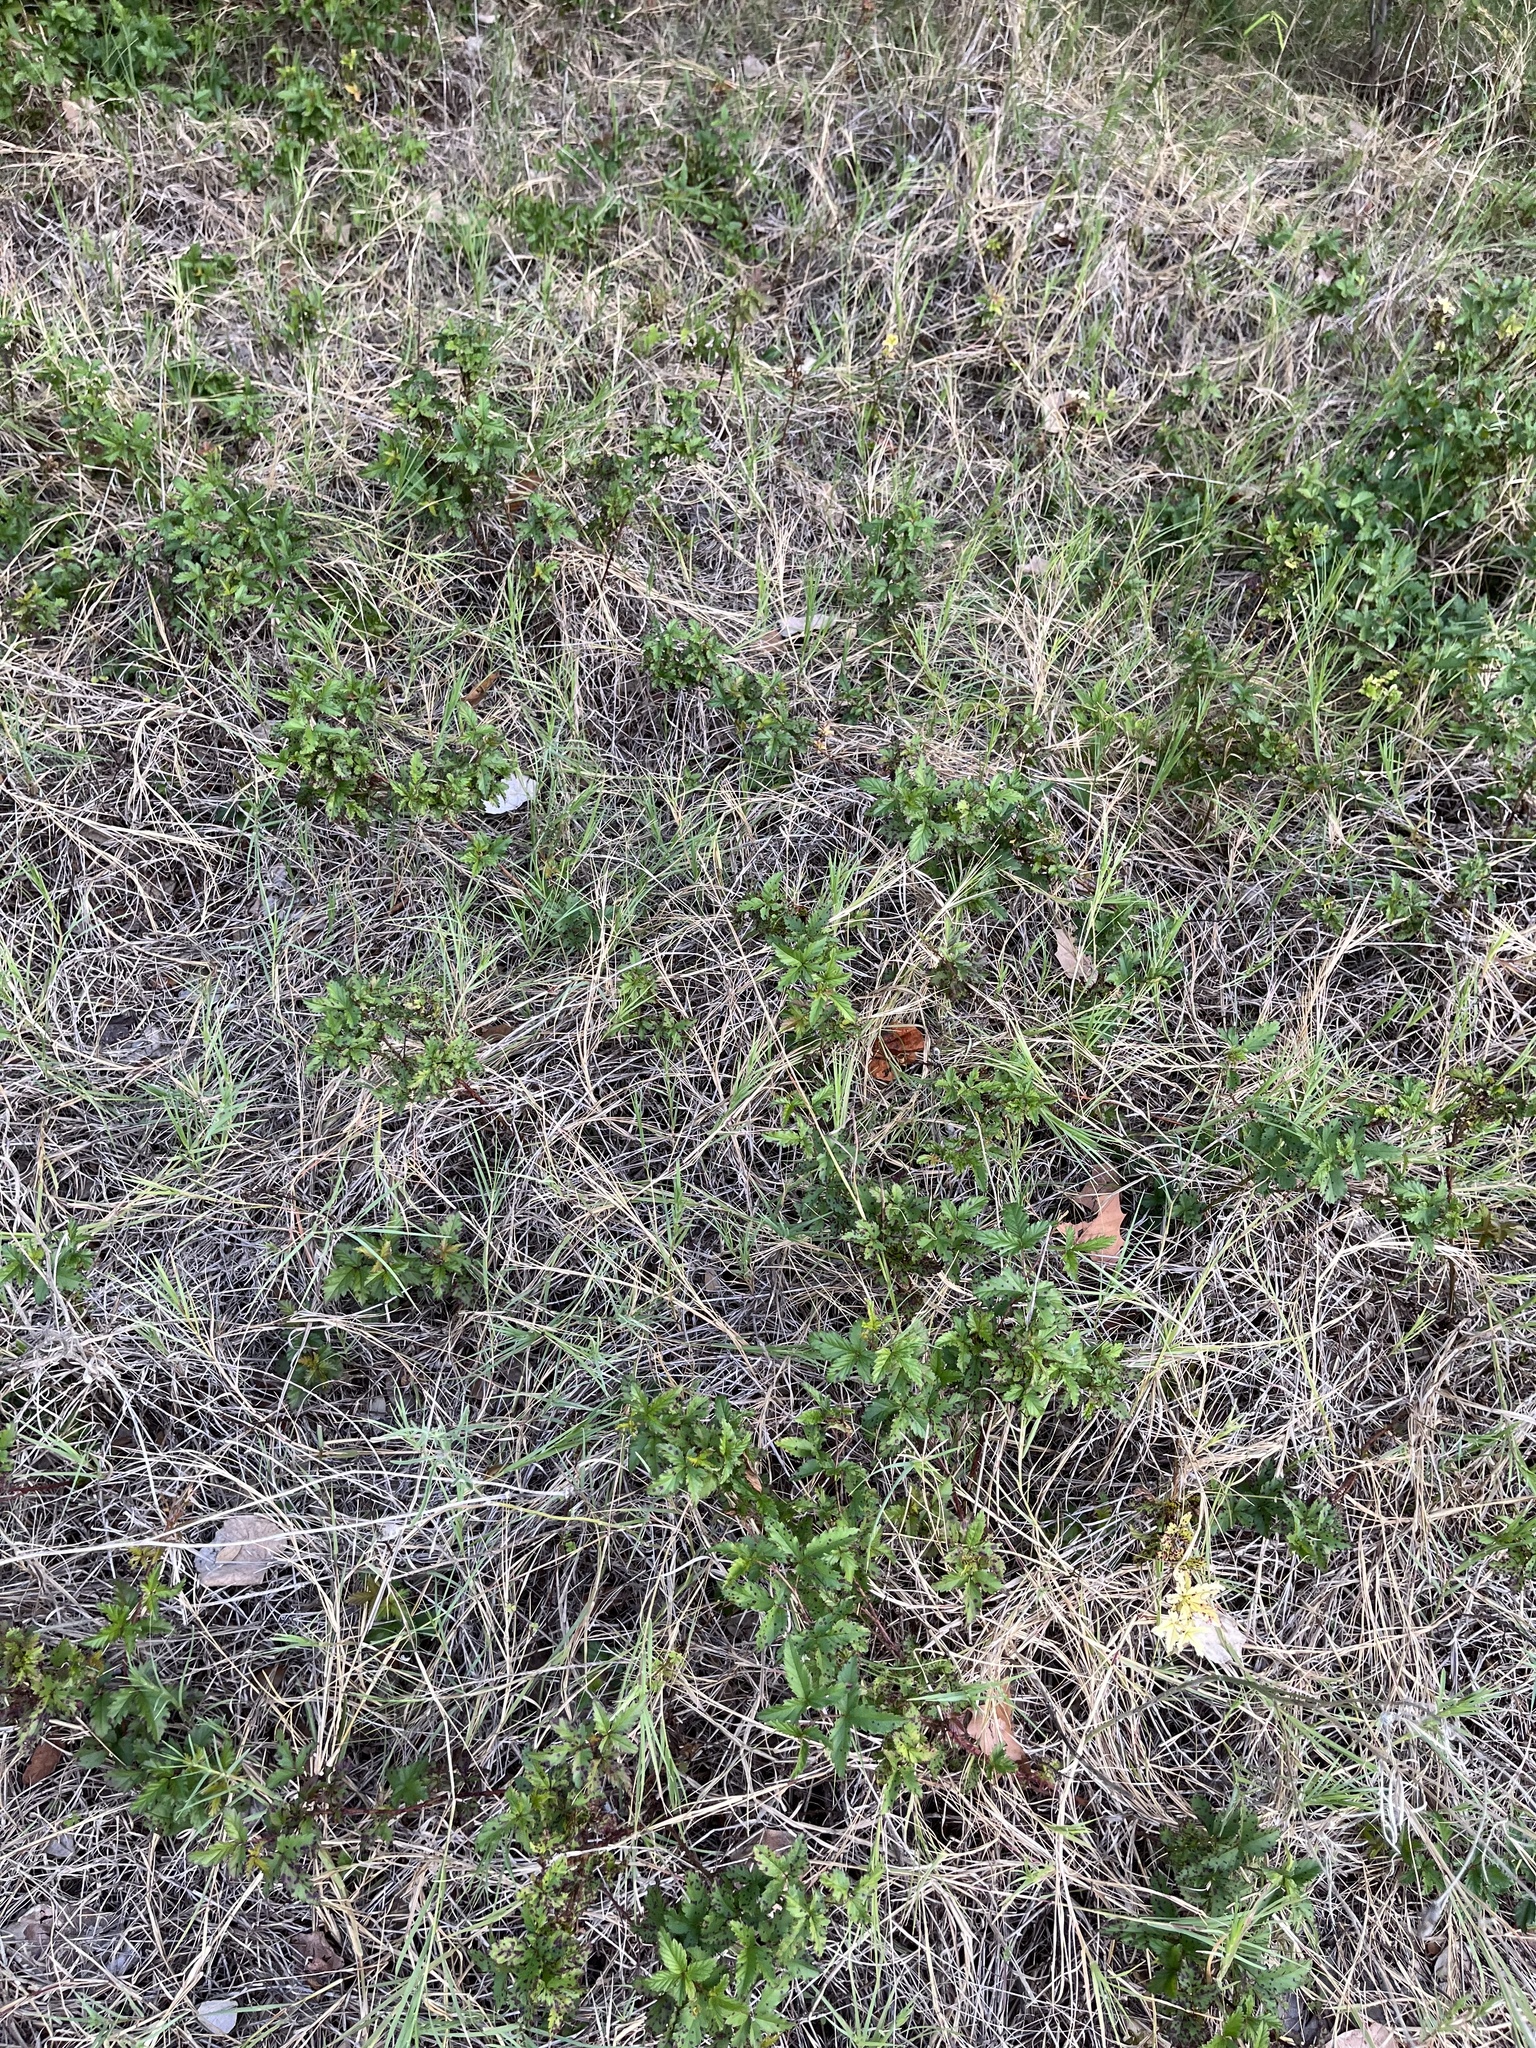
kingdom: Plantae
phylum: Tracheophyta
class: Magnoliopsida
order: Rosales
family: Rosaceae
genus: Rubus
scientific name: Rubus trivialis
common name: Southern dewberry
